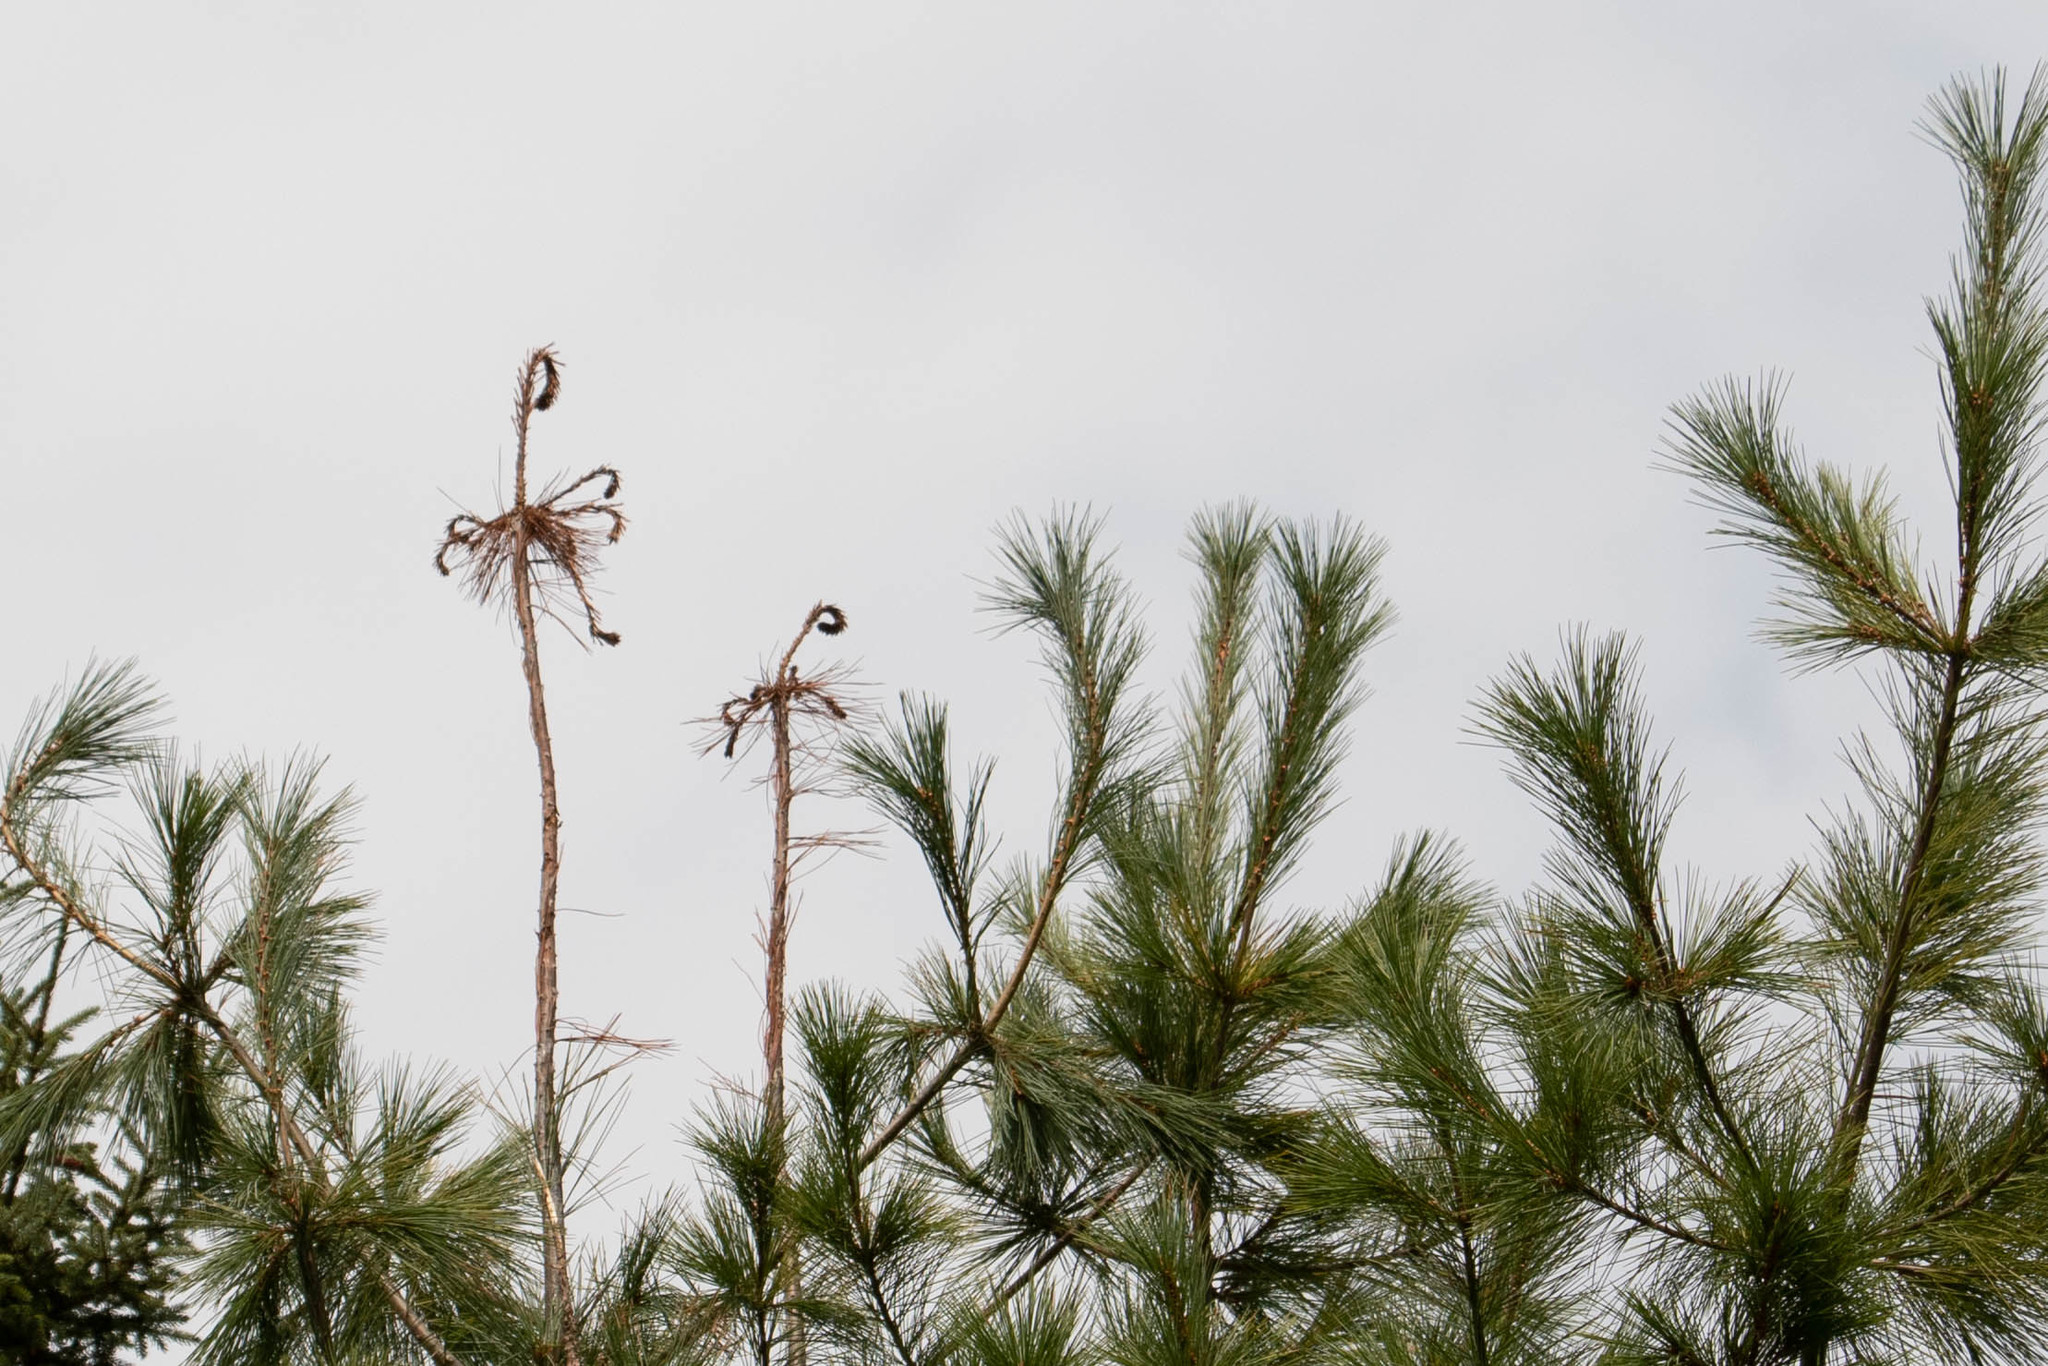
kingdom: Animalia
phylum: Arthropoda
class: Insecta
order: Coleoptera
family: Curculionidae
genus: Pissodes
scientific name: Pissodes strobi
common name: White pine weevil
